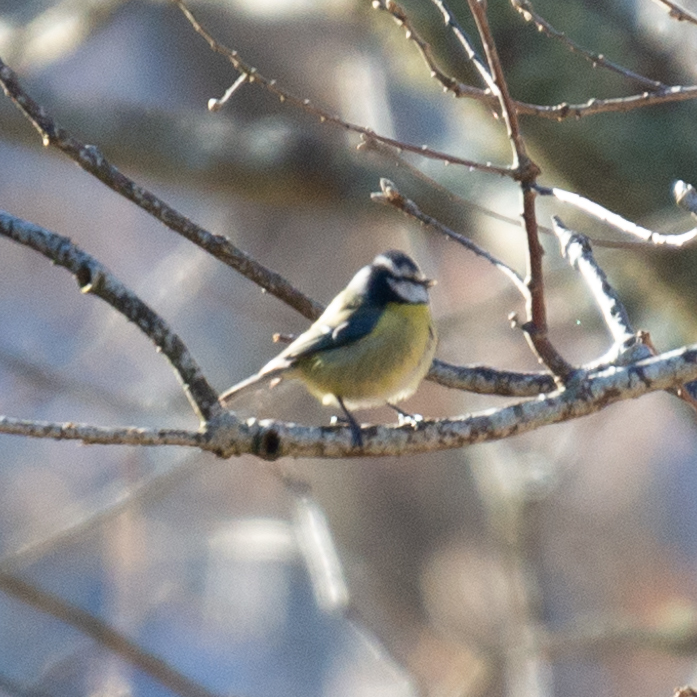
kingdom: Animalia
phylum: Chordata
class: Aves
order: Passeriformes
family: Paridae
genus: Cyanistes
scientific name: Cyanistes caeruleus
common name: Eurasian blue tit
